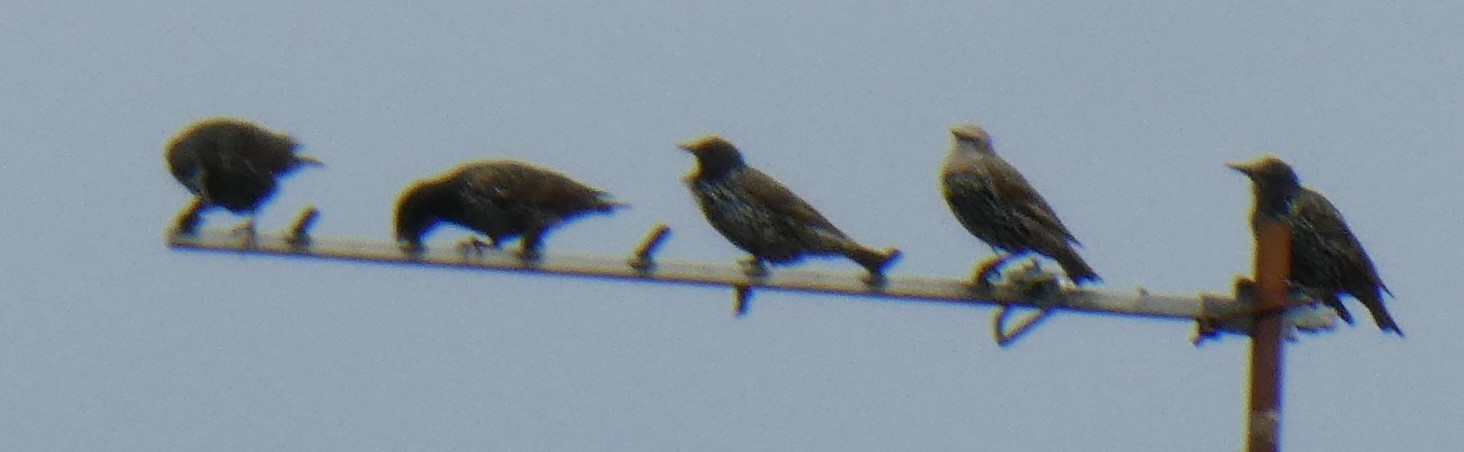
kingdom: Animalia
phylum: Chordata
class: Aves
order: Passeriformes
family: Sturnidae
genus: Sturnus
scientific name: Sturnus vulgaris
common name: Common starling
